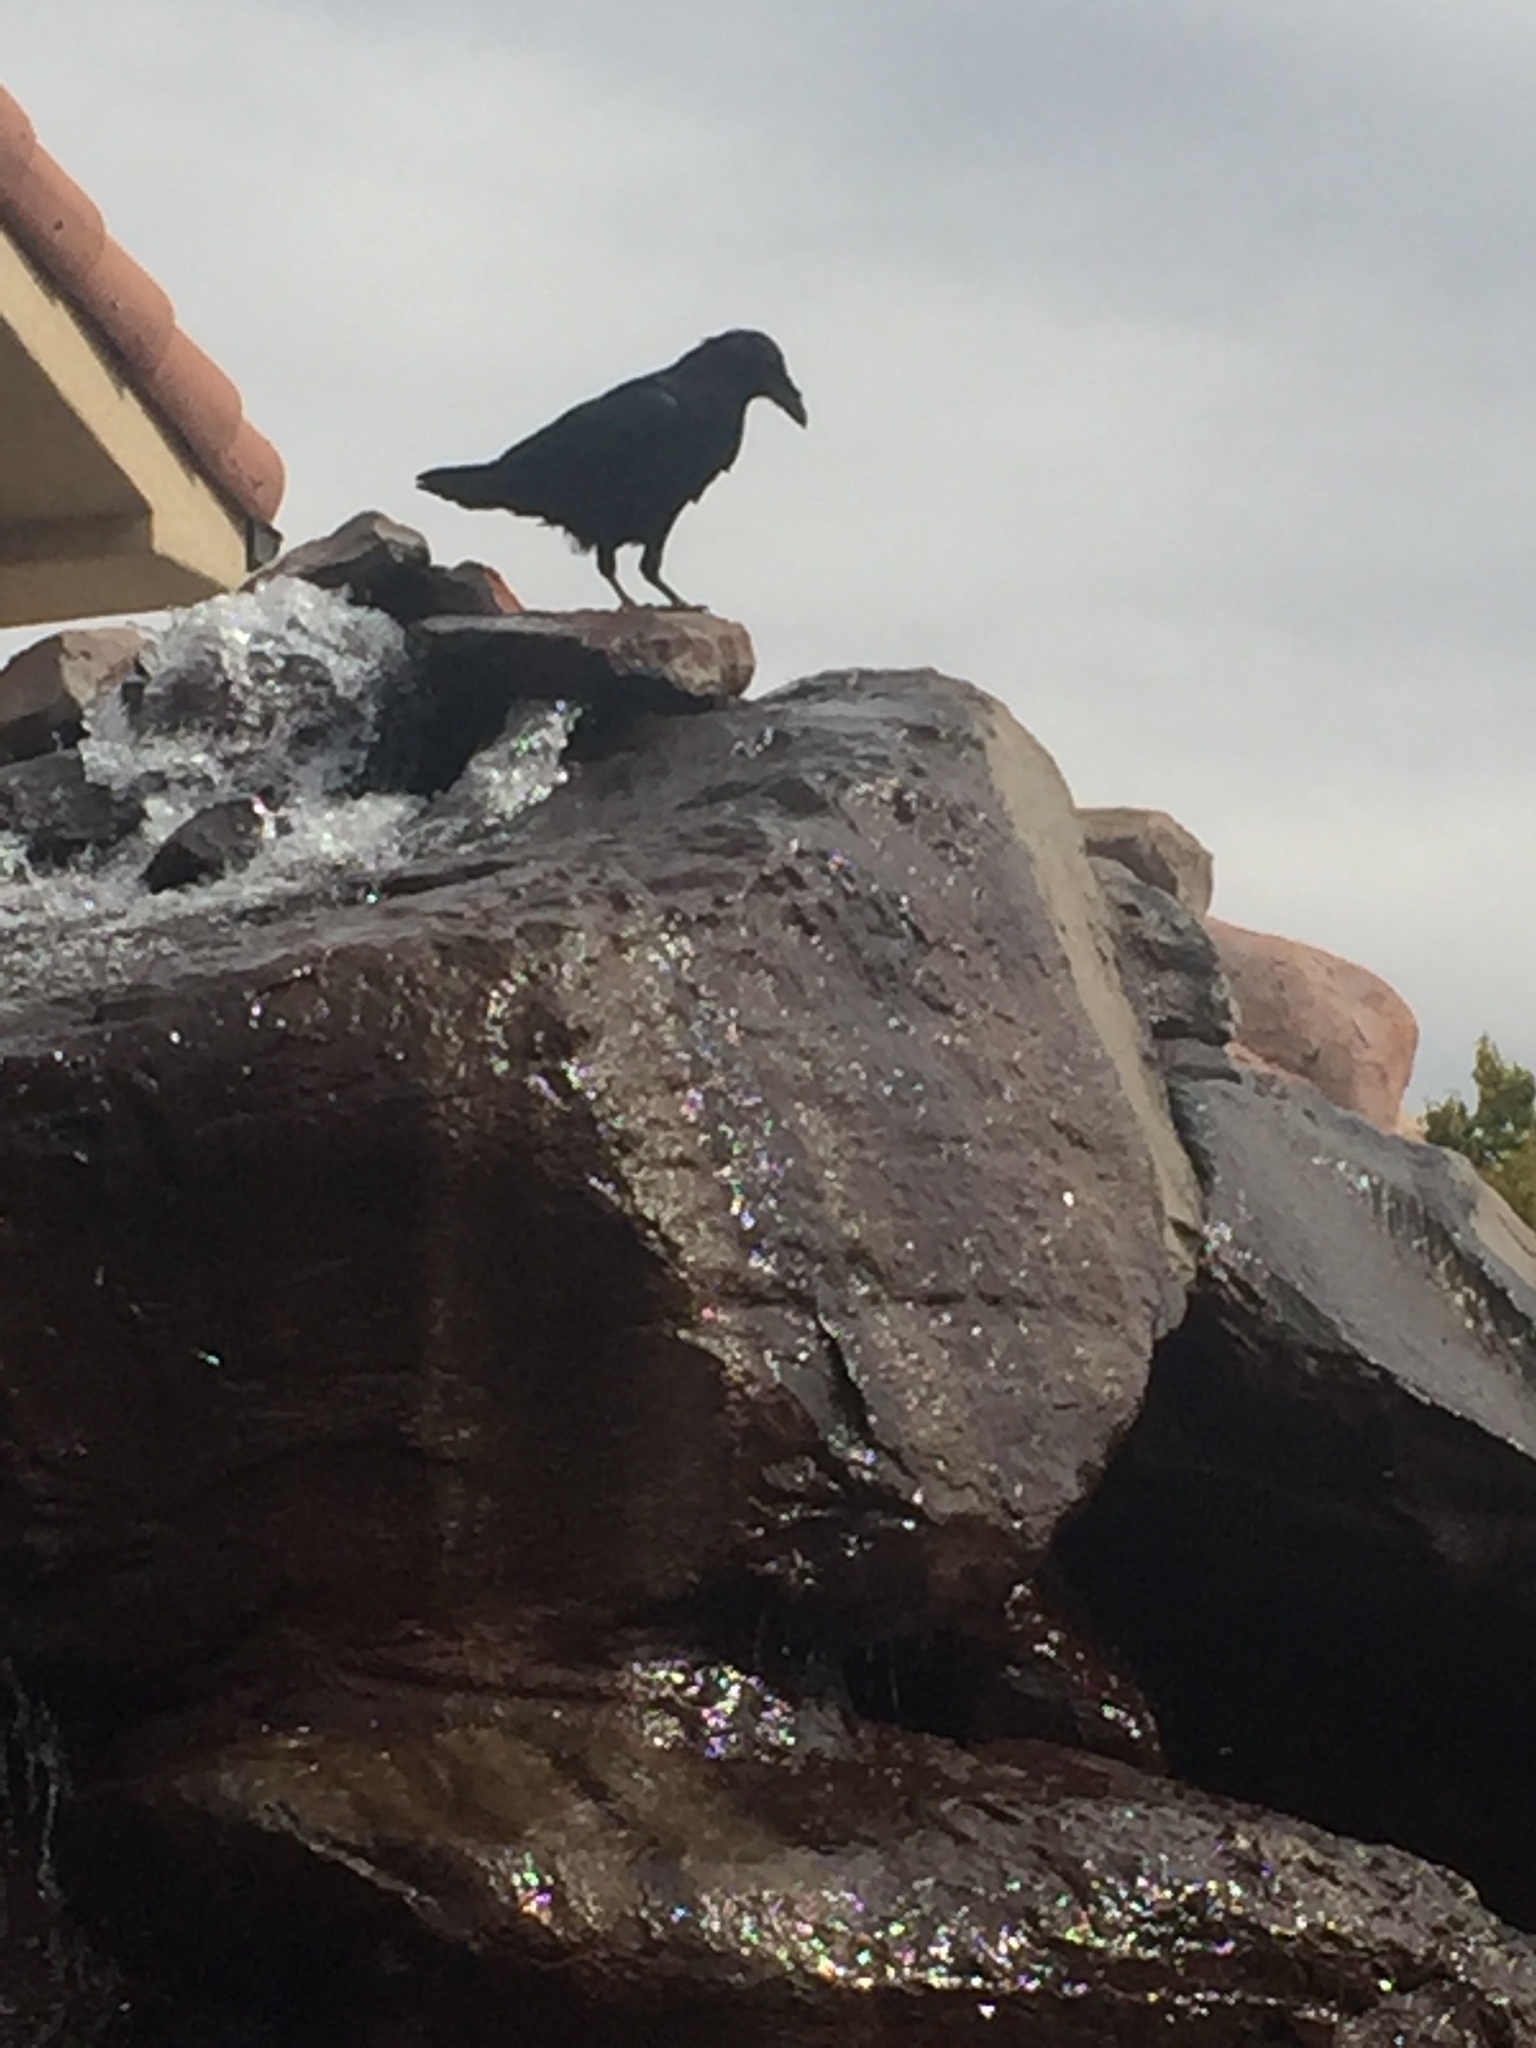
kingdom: Animalia
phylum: Chordata
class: Aves
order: Passeriformes
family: Corvidae
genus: Corvus
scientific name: Corvus corax
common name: Common raven
